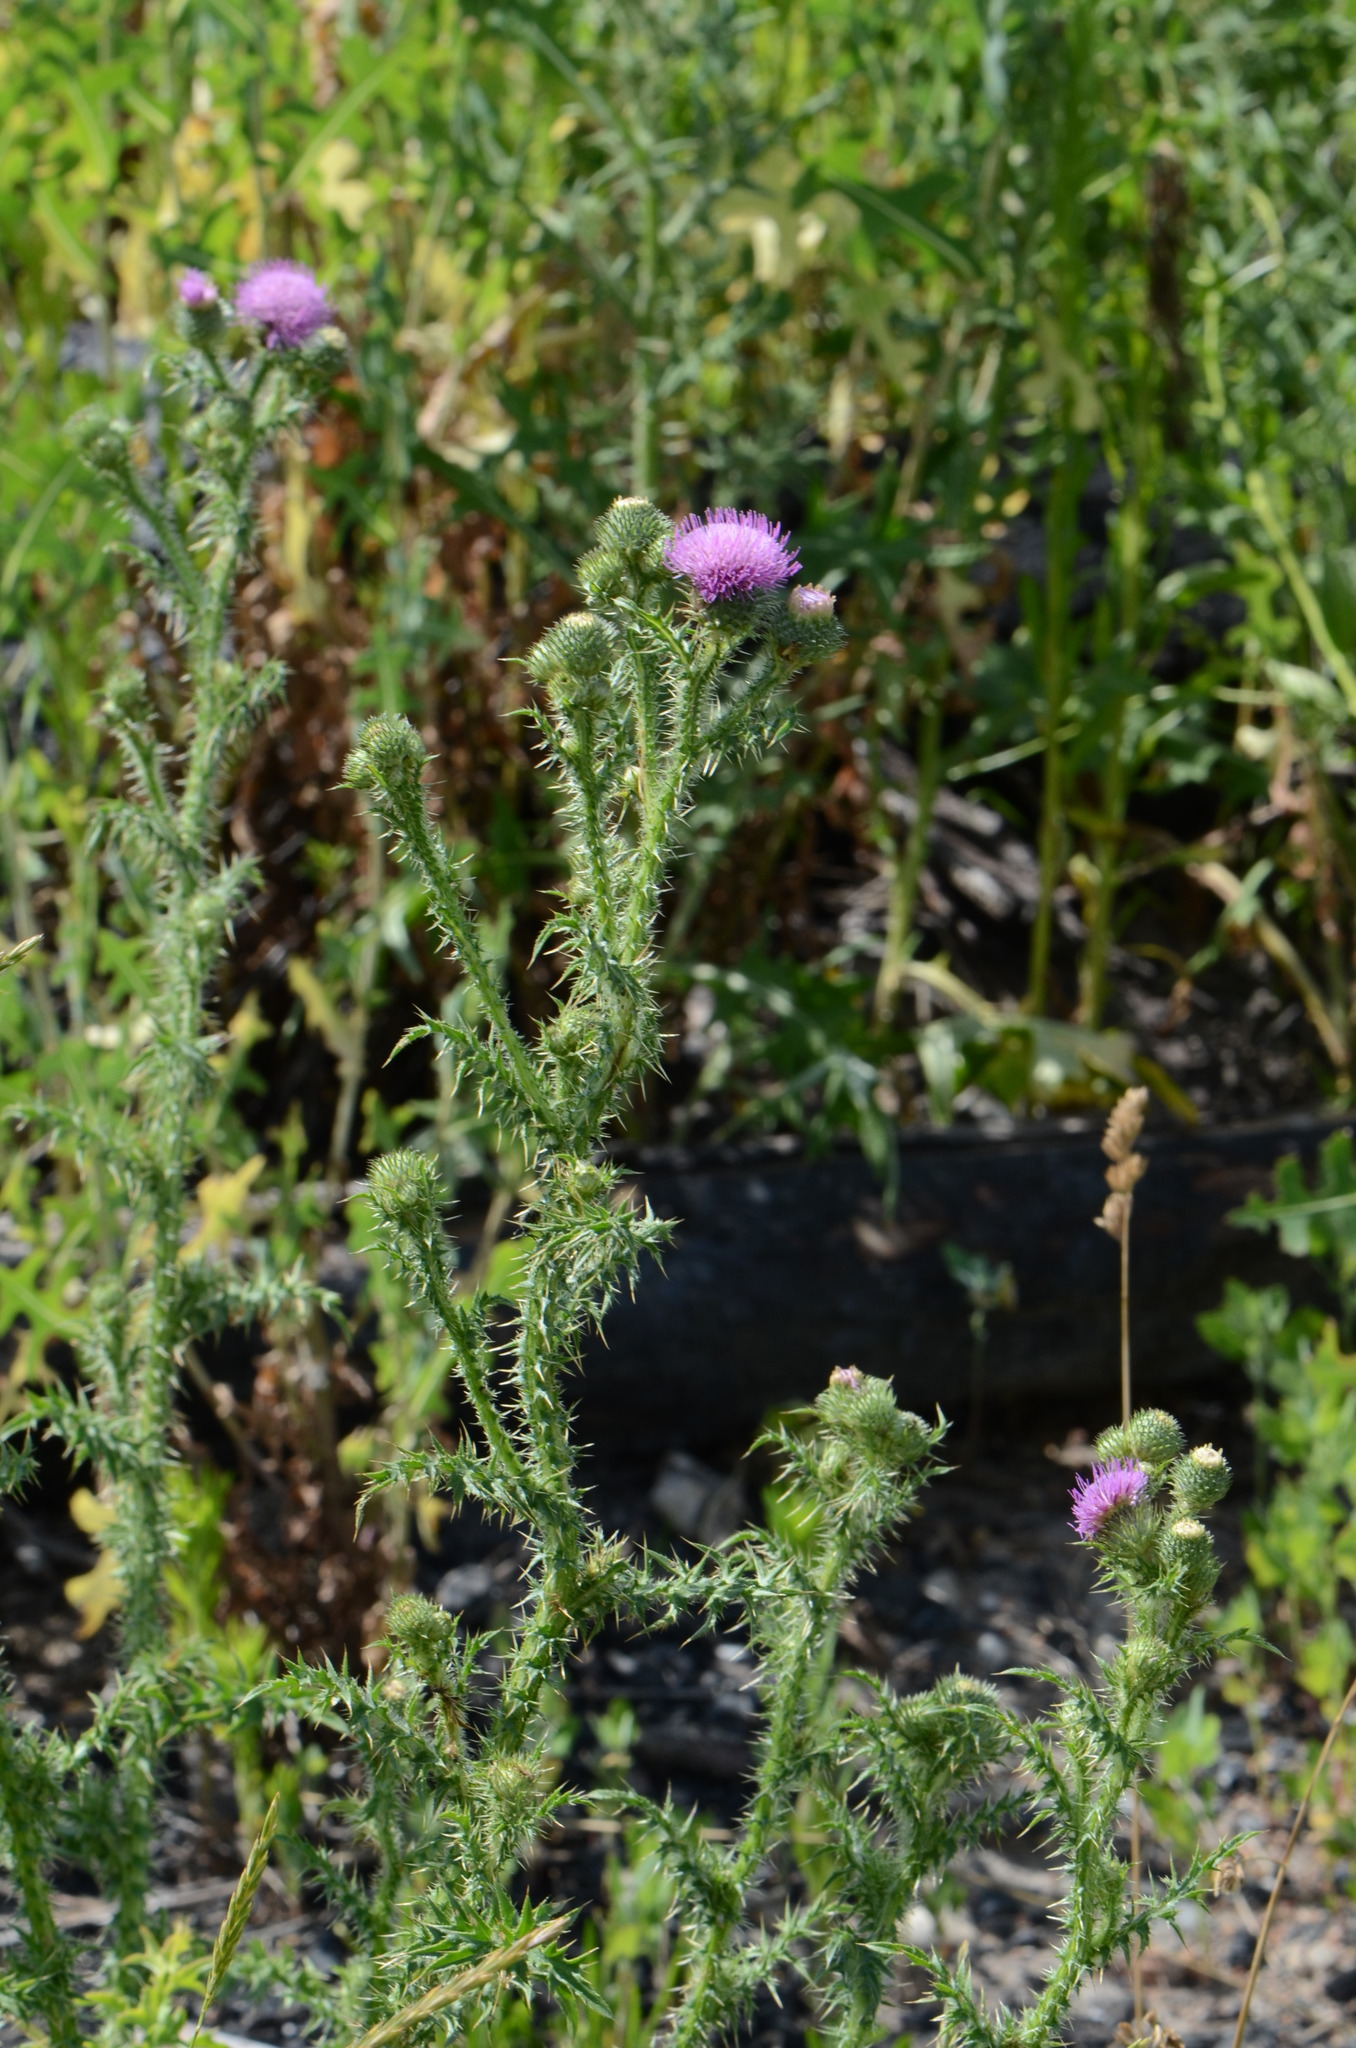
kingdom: Plantae
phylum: Tracheophyta
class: Magnoliopsida
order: Asterales
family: Asteraceae
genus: Carduus
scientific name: Carduus acanthoides
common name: Plumeless thistle
